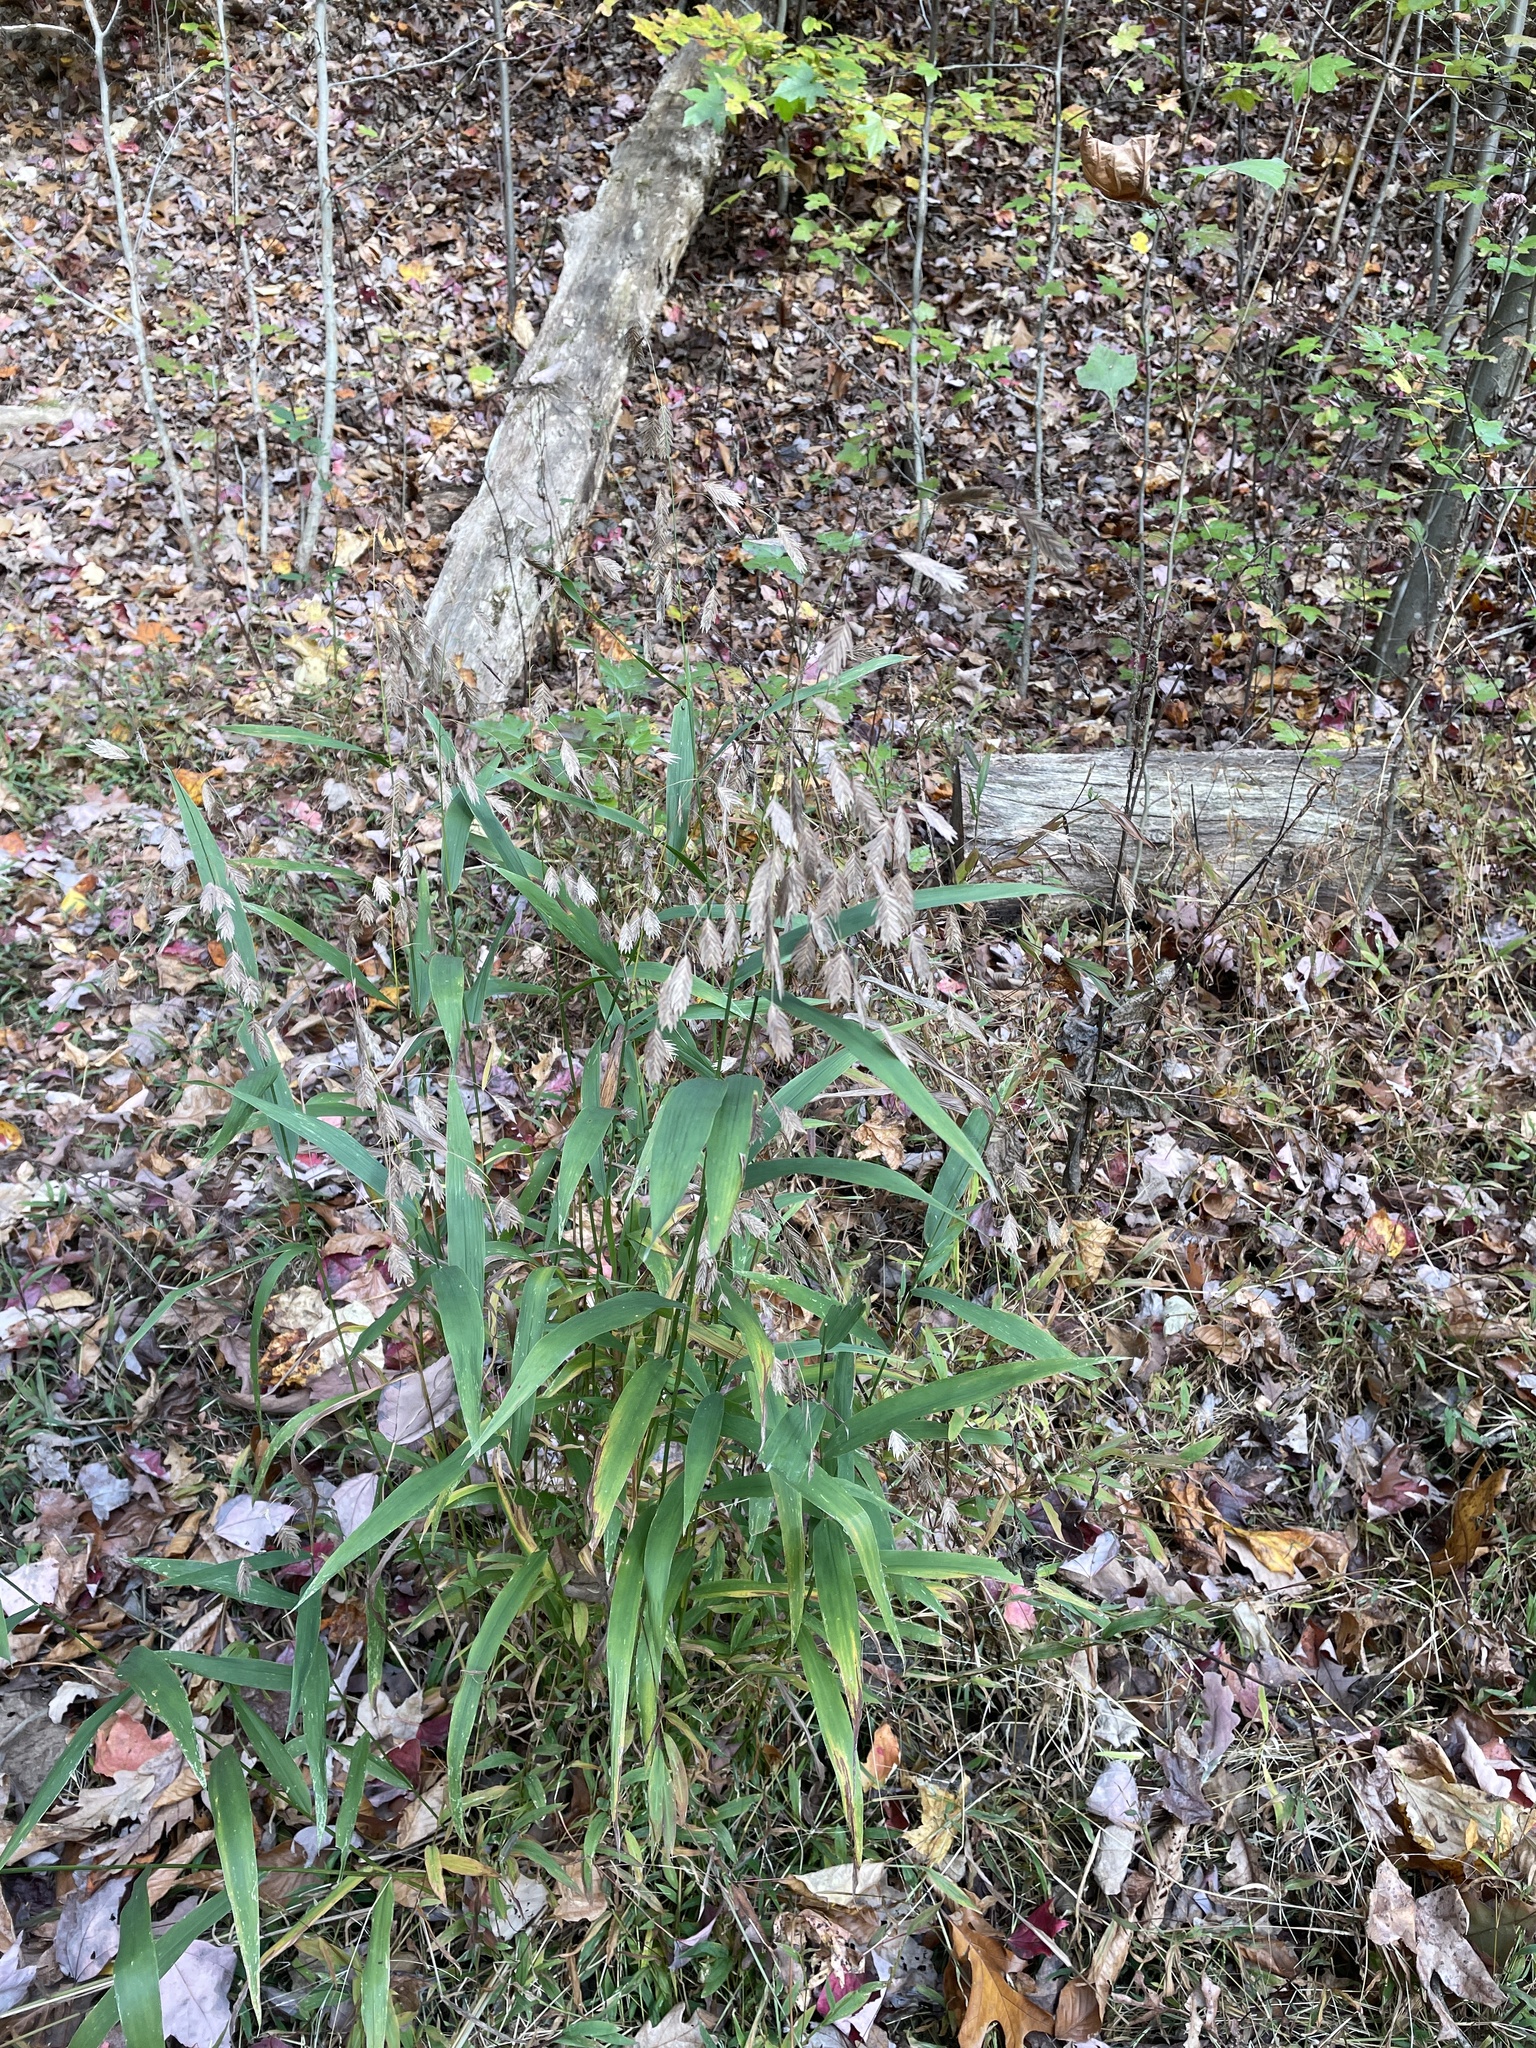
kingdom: Plantae
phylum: Tracheophyta
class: Liliopsida
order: Poales
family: Poaceae
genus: Chasmanthium
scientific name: Chasmanthium latifolium
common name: Broad-leaved chasmanthium
